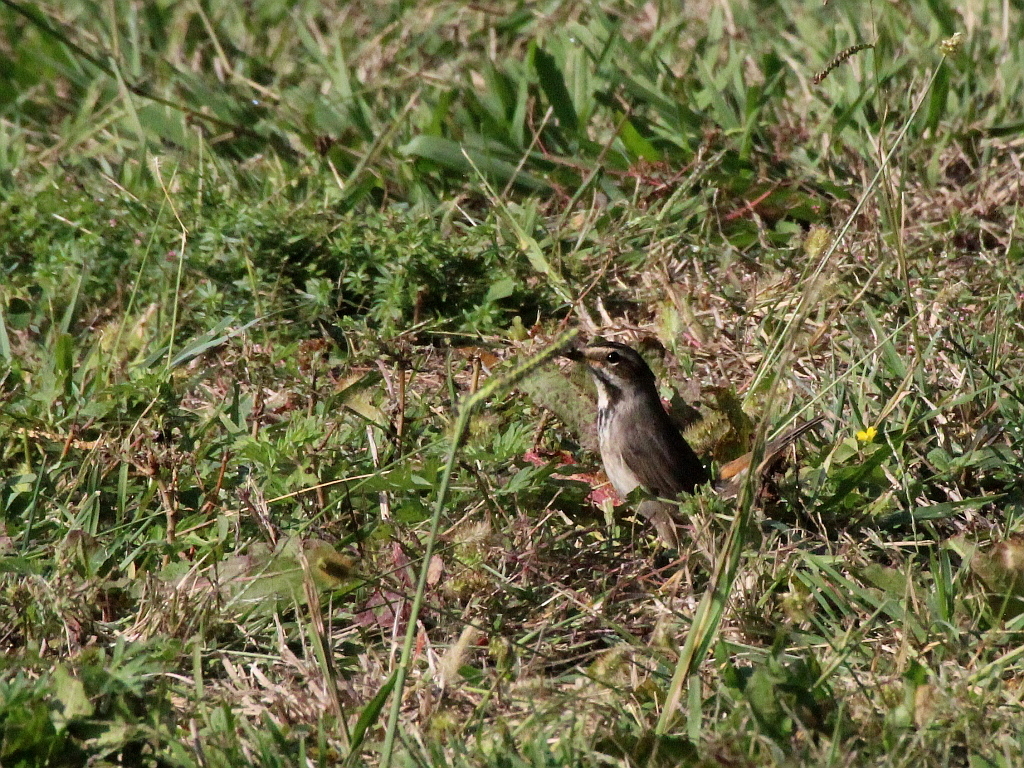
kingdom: Animalia
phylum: Chordata
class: Aves
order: Passeriformes
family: Muscicapidae
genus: Luscinia
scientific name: Luscinia svecica
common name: Bluethroat
